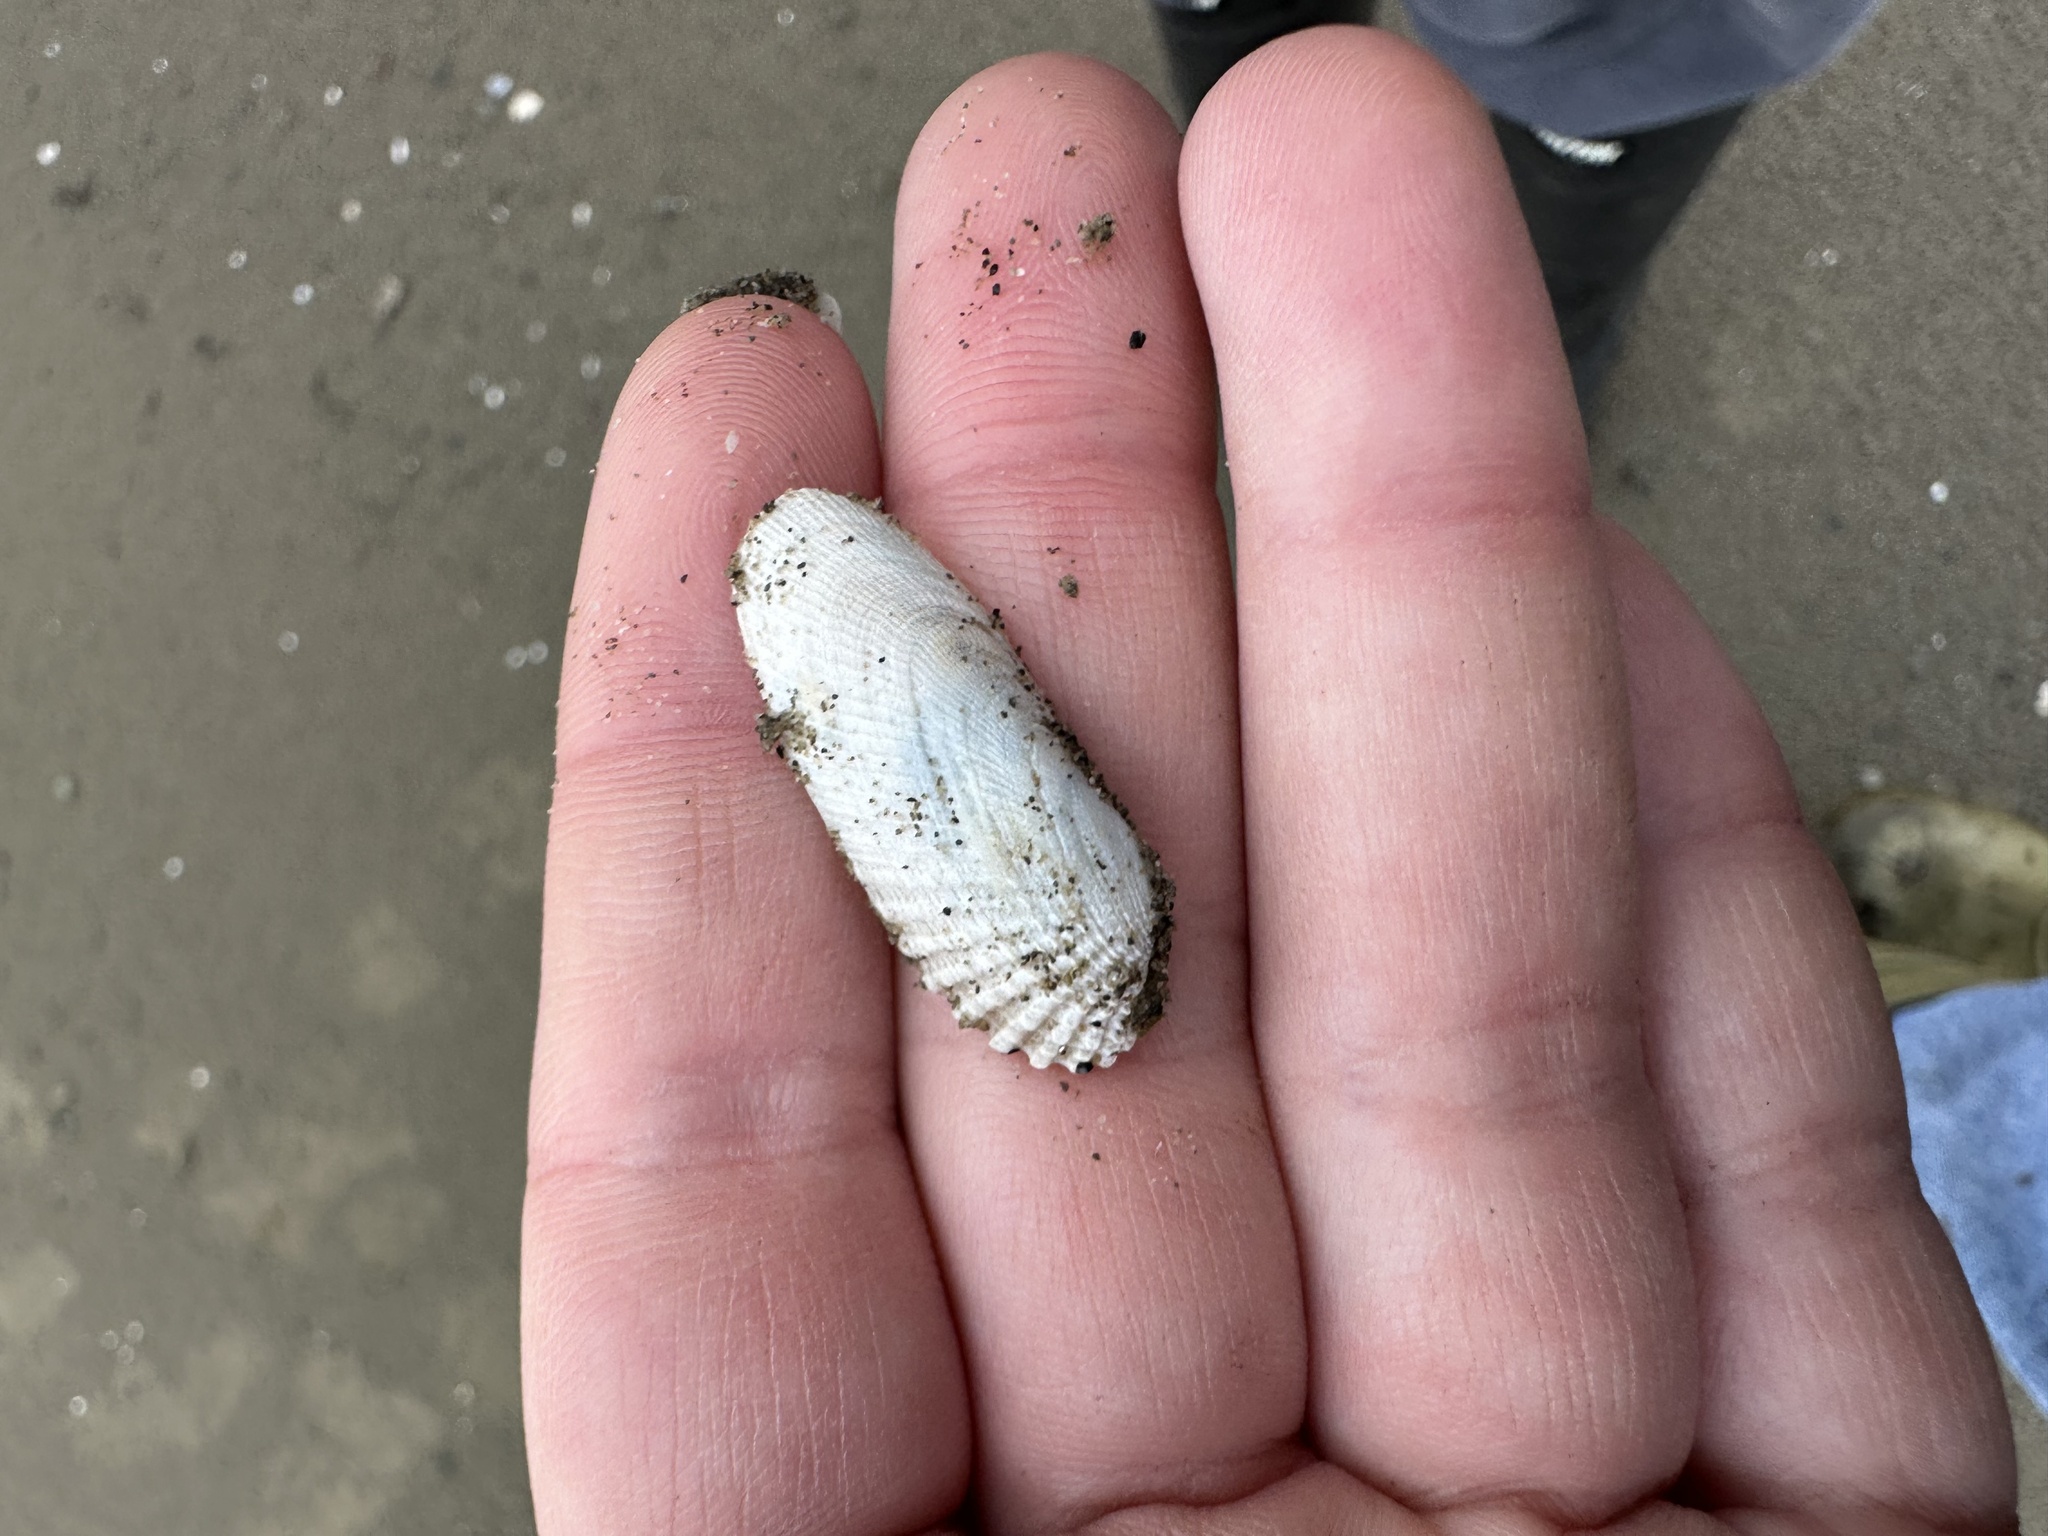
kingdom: Animalia
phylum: Mollusca
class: Bivalvia
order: Venerida
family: Veneridae
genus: Petricolaria
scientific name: Petricolaria pholadiformis
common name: American piddock
